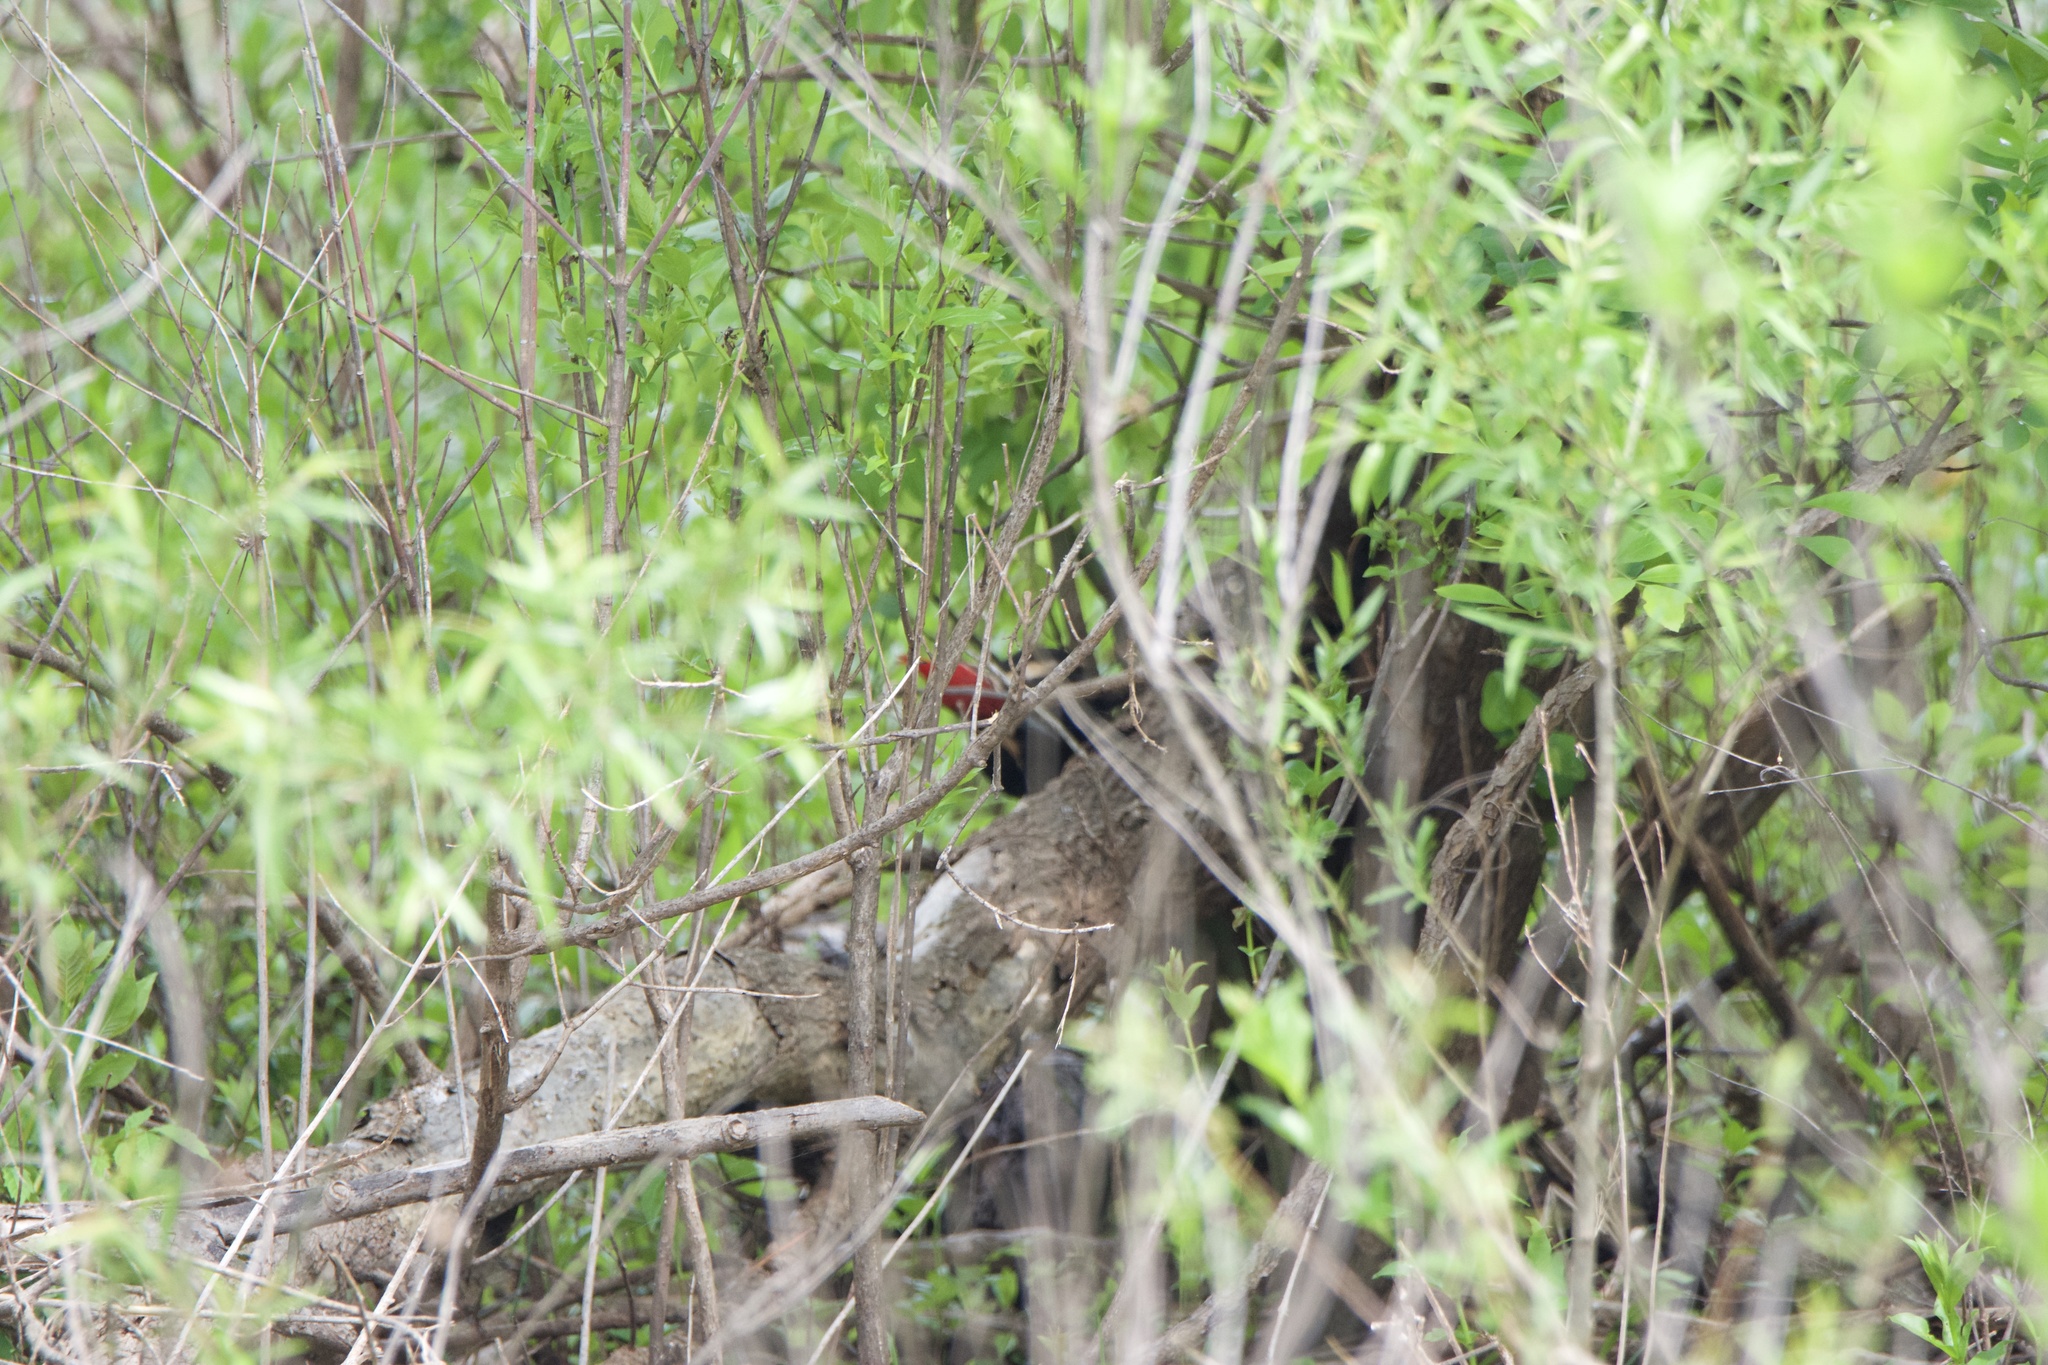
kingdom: Animalia
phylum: Chordata
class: Aves
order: Piciformes
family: Picidae
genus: Dryocopus
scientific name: Dryocopus pileatus
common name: Pileated woodpecker
